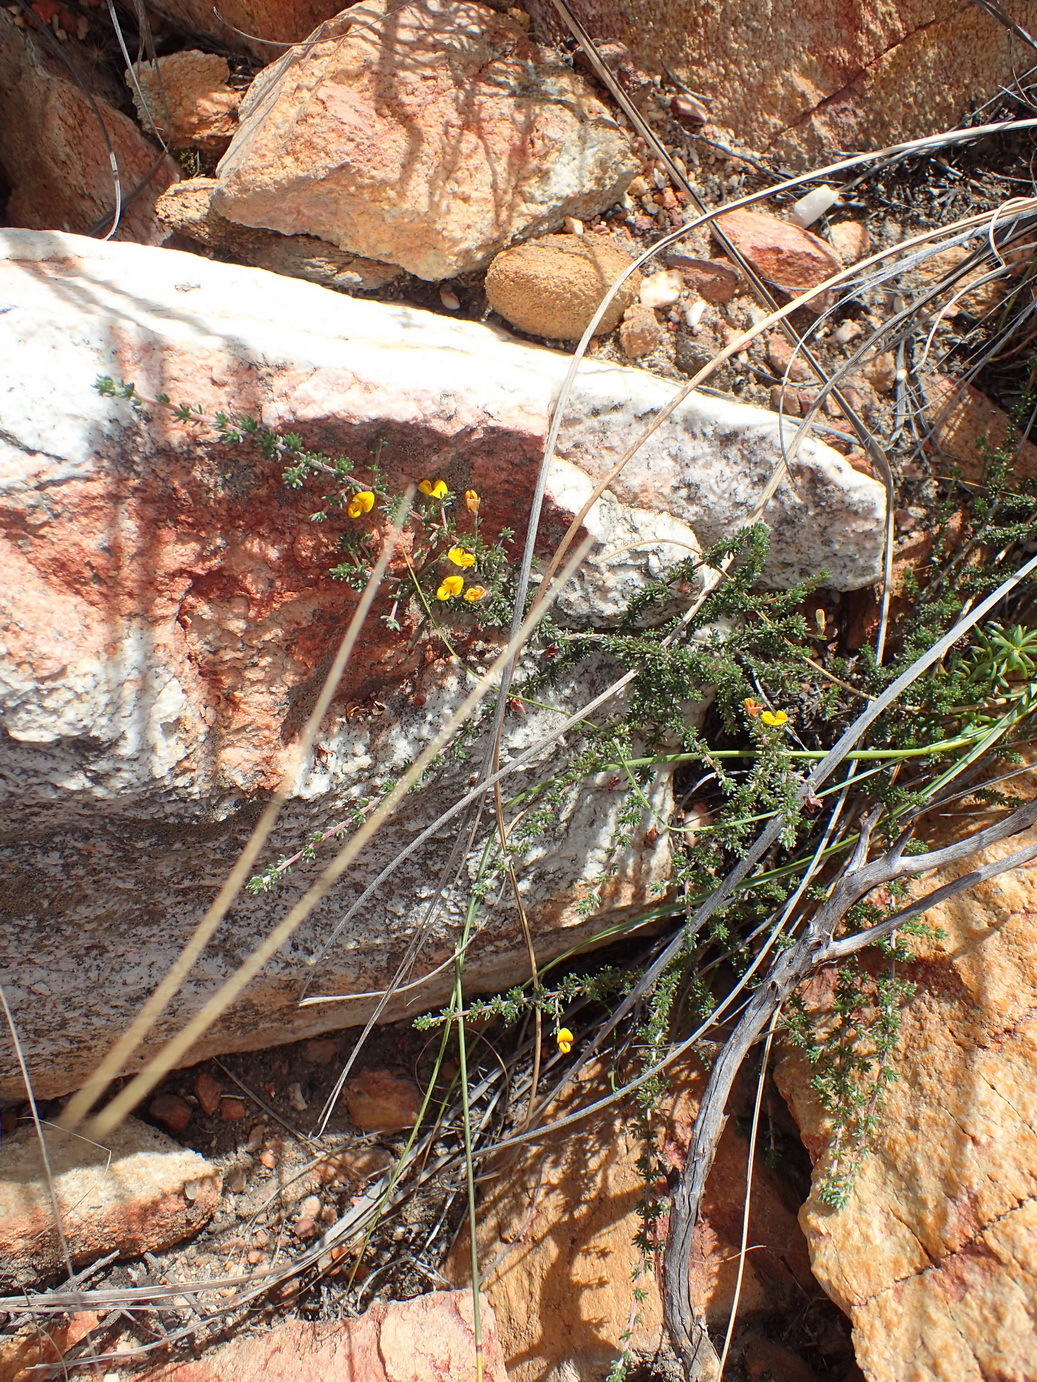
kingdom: Plantae
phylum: Tracheophyta
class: Magnoliopsida
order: Fabales
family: Fabaceae
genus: Aspalathus
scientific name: Aspalathus rubens
